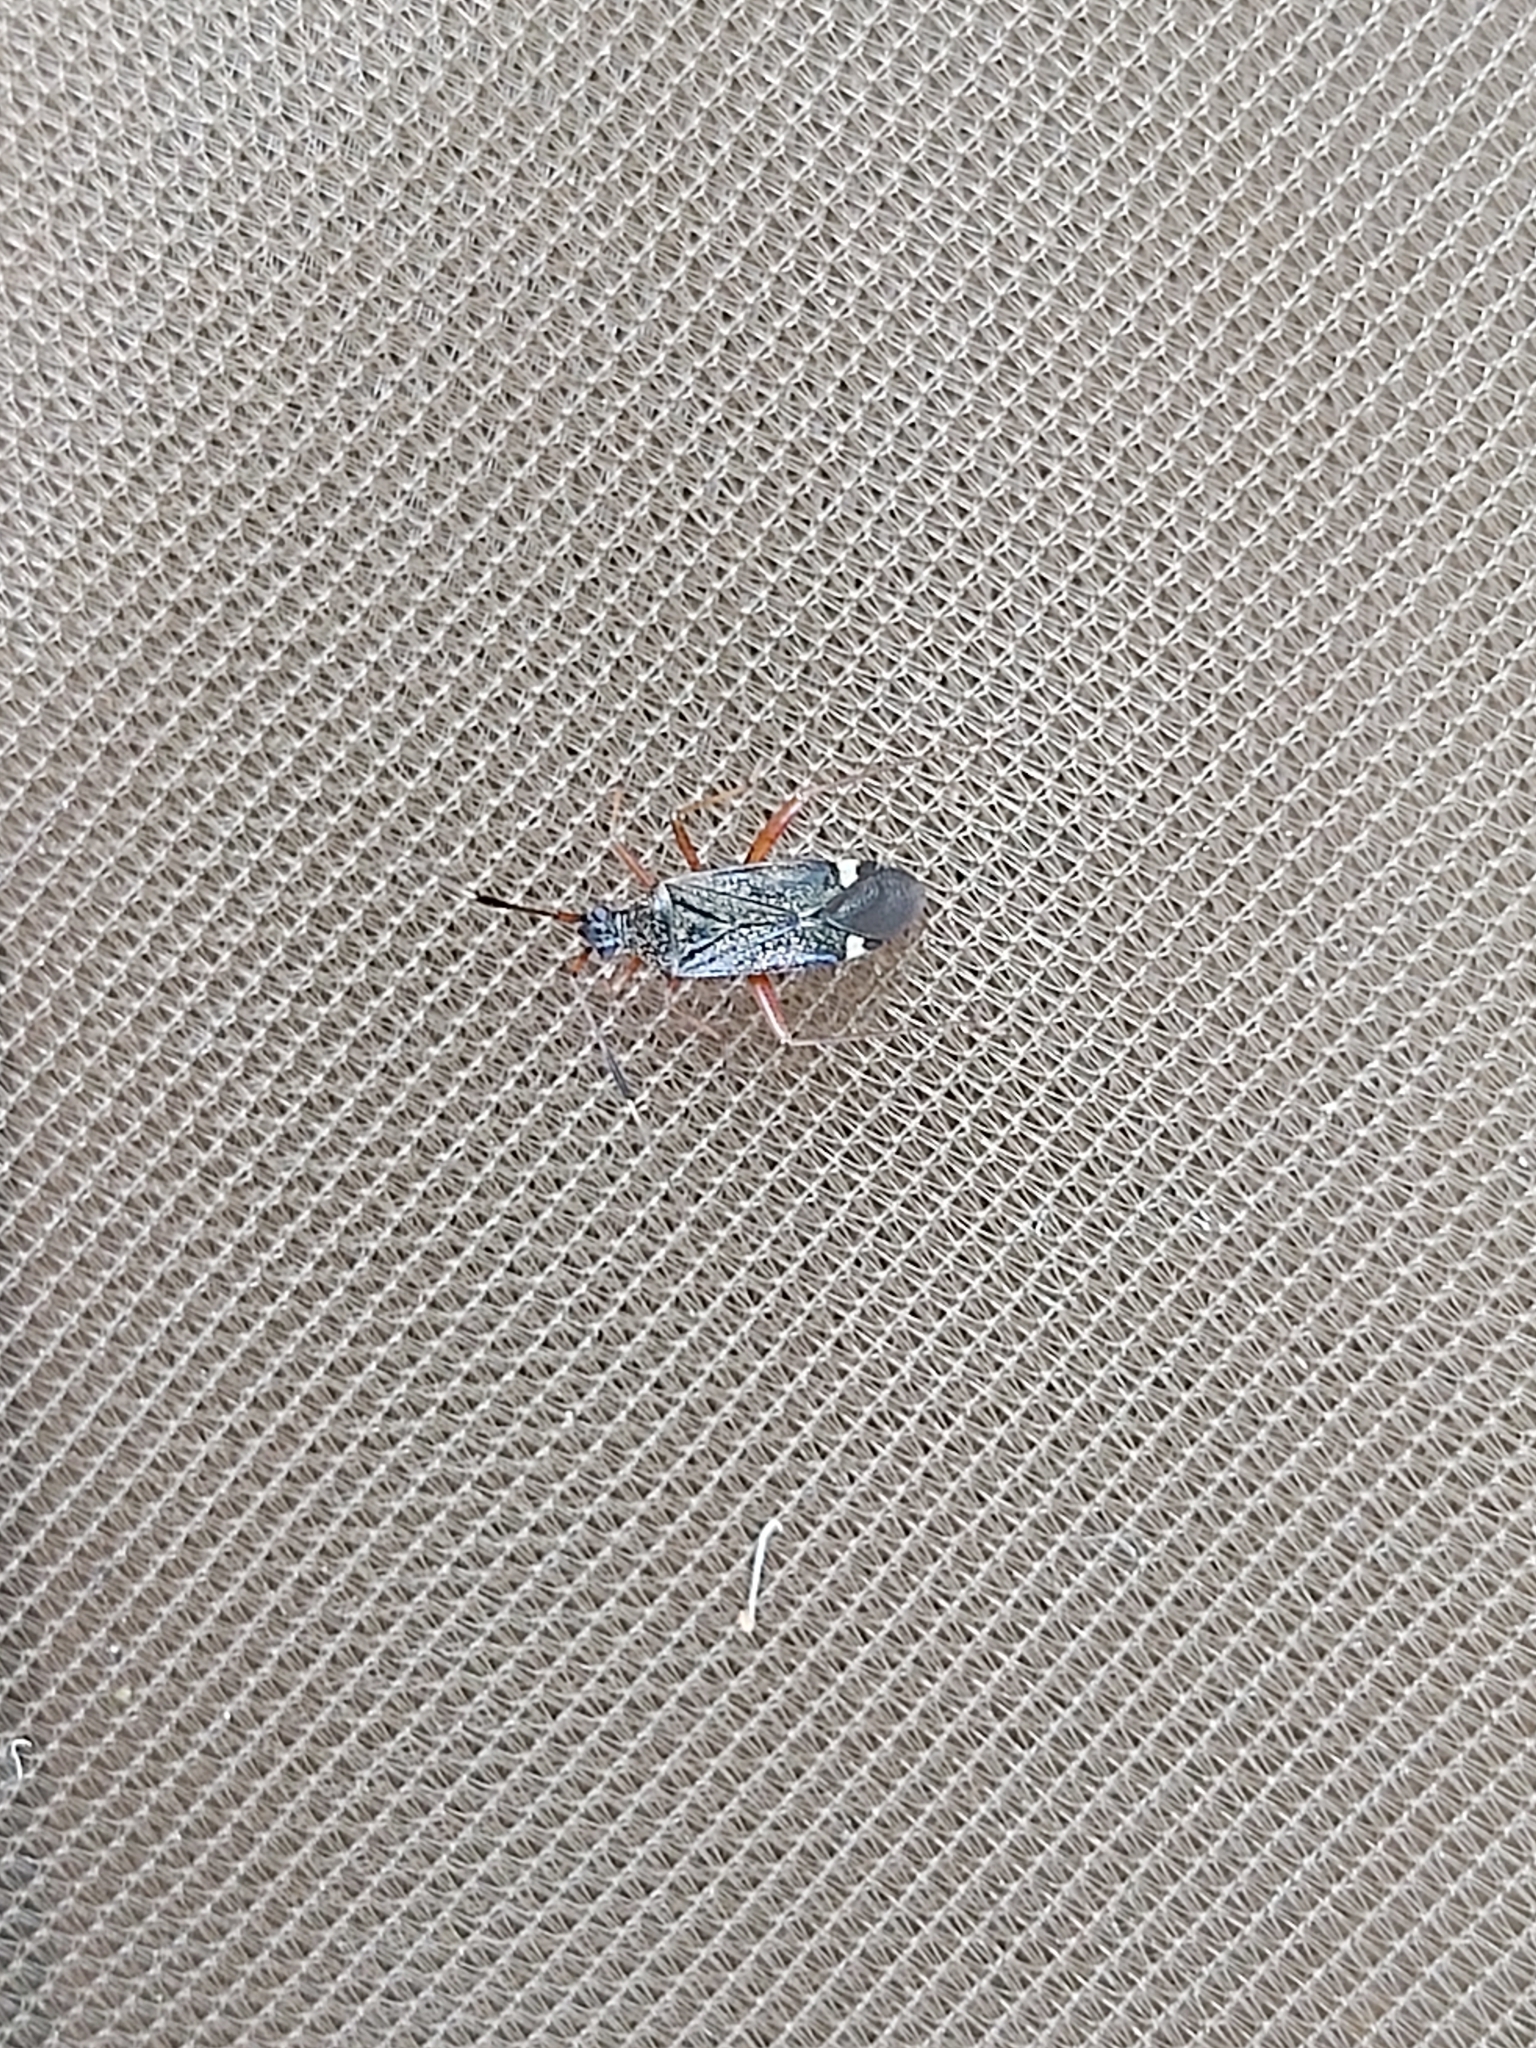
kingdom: Animalia
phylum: Arthropoda
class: Insecta
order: Hemiptera
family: Miridae
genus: Closterotomus
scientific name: Closterotomus biclavatus
